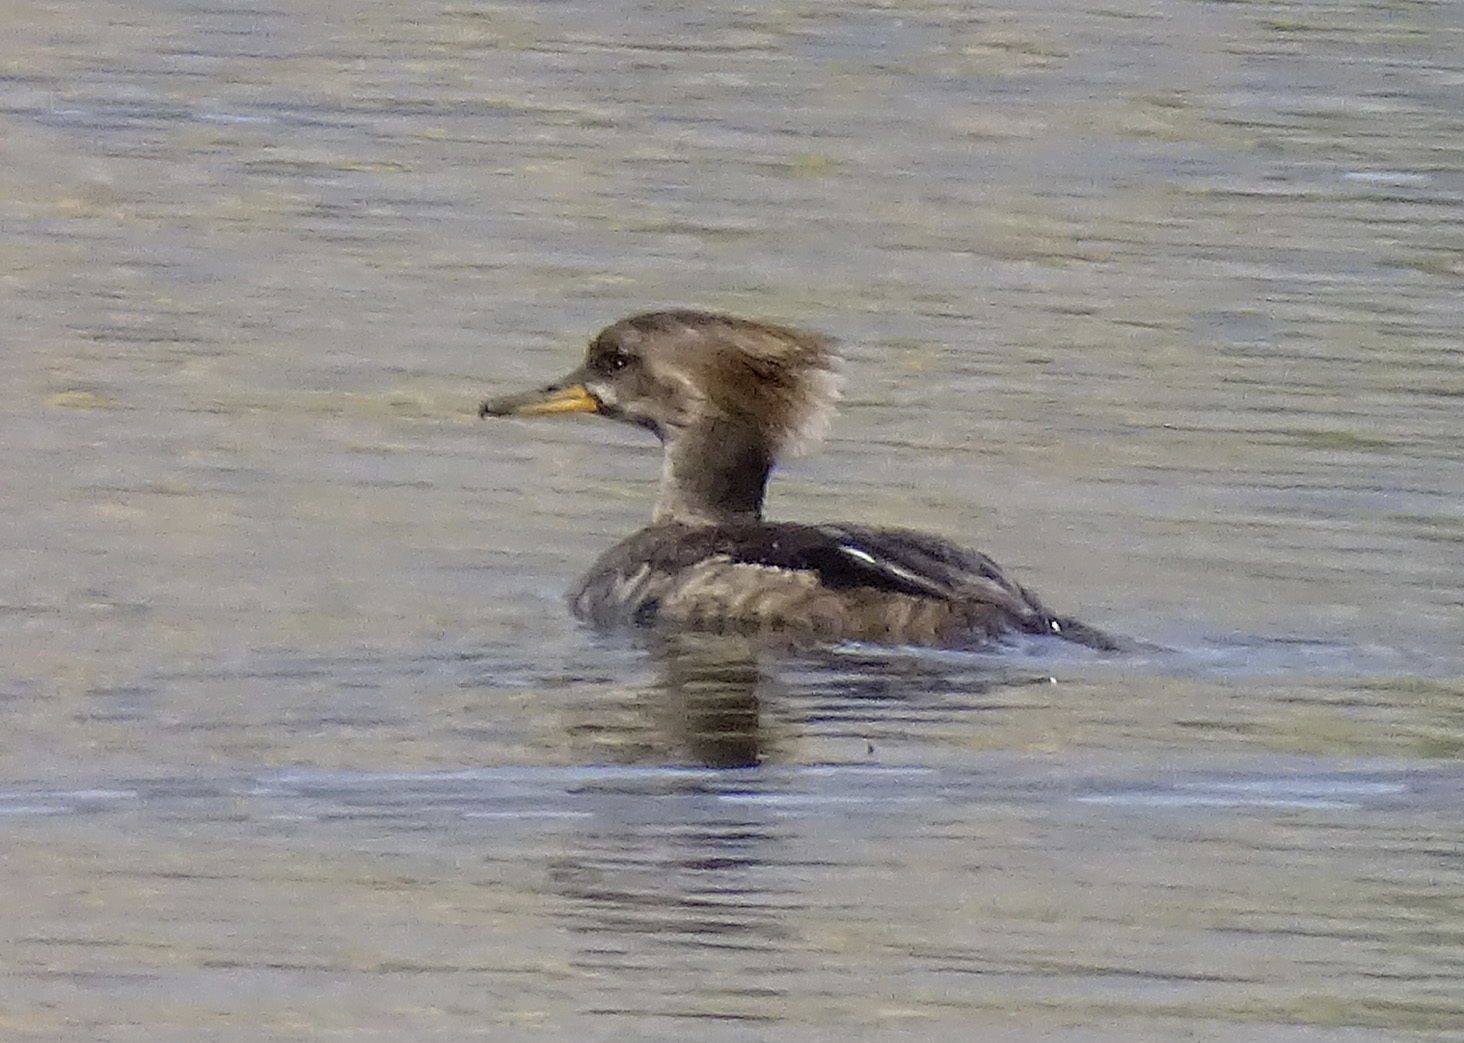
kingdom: Animalia
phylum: Chordata
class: Aves
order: Anseriformes
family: Anatidae
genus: Lophodytes
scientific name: Lophodytes cucullatus
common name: Hooded merganser
